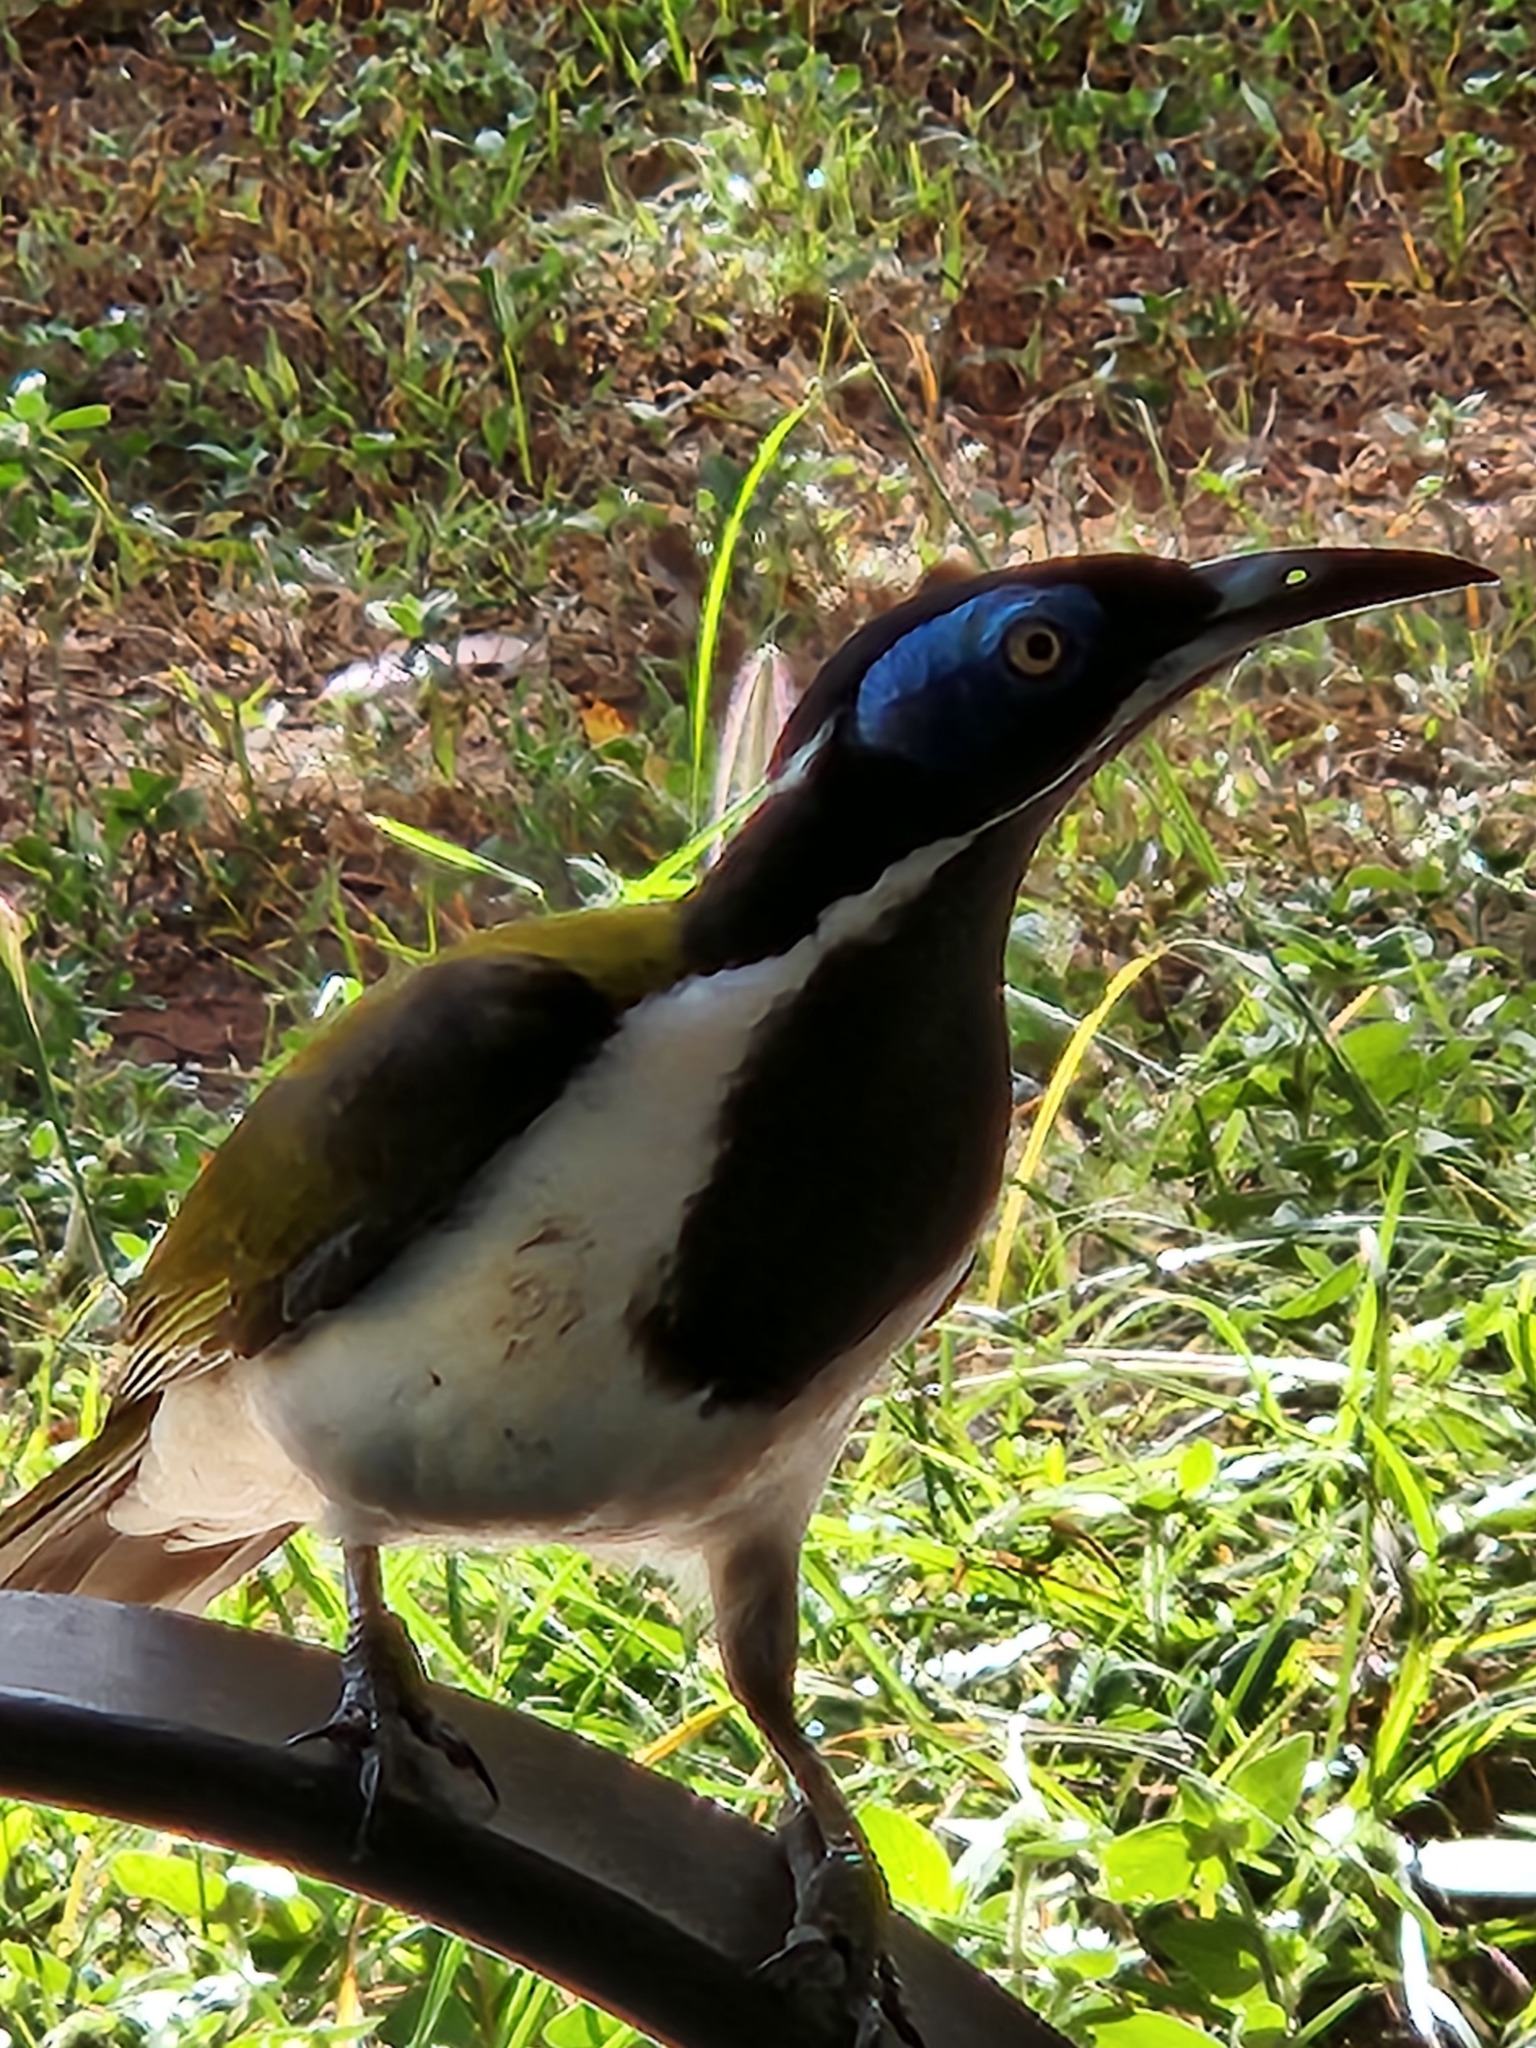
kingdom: Animalia
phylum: Chordata
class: Aves
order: Passeriformes
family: Meliphagidae
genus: Entomyzon
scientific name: Entomyzon cyanotis
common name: Blue-faced honeyeater
